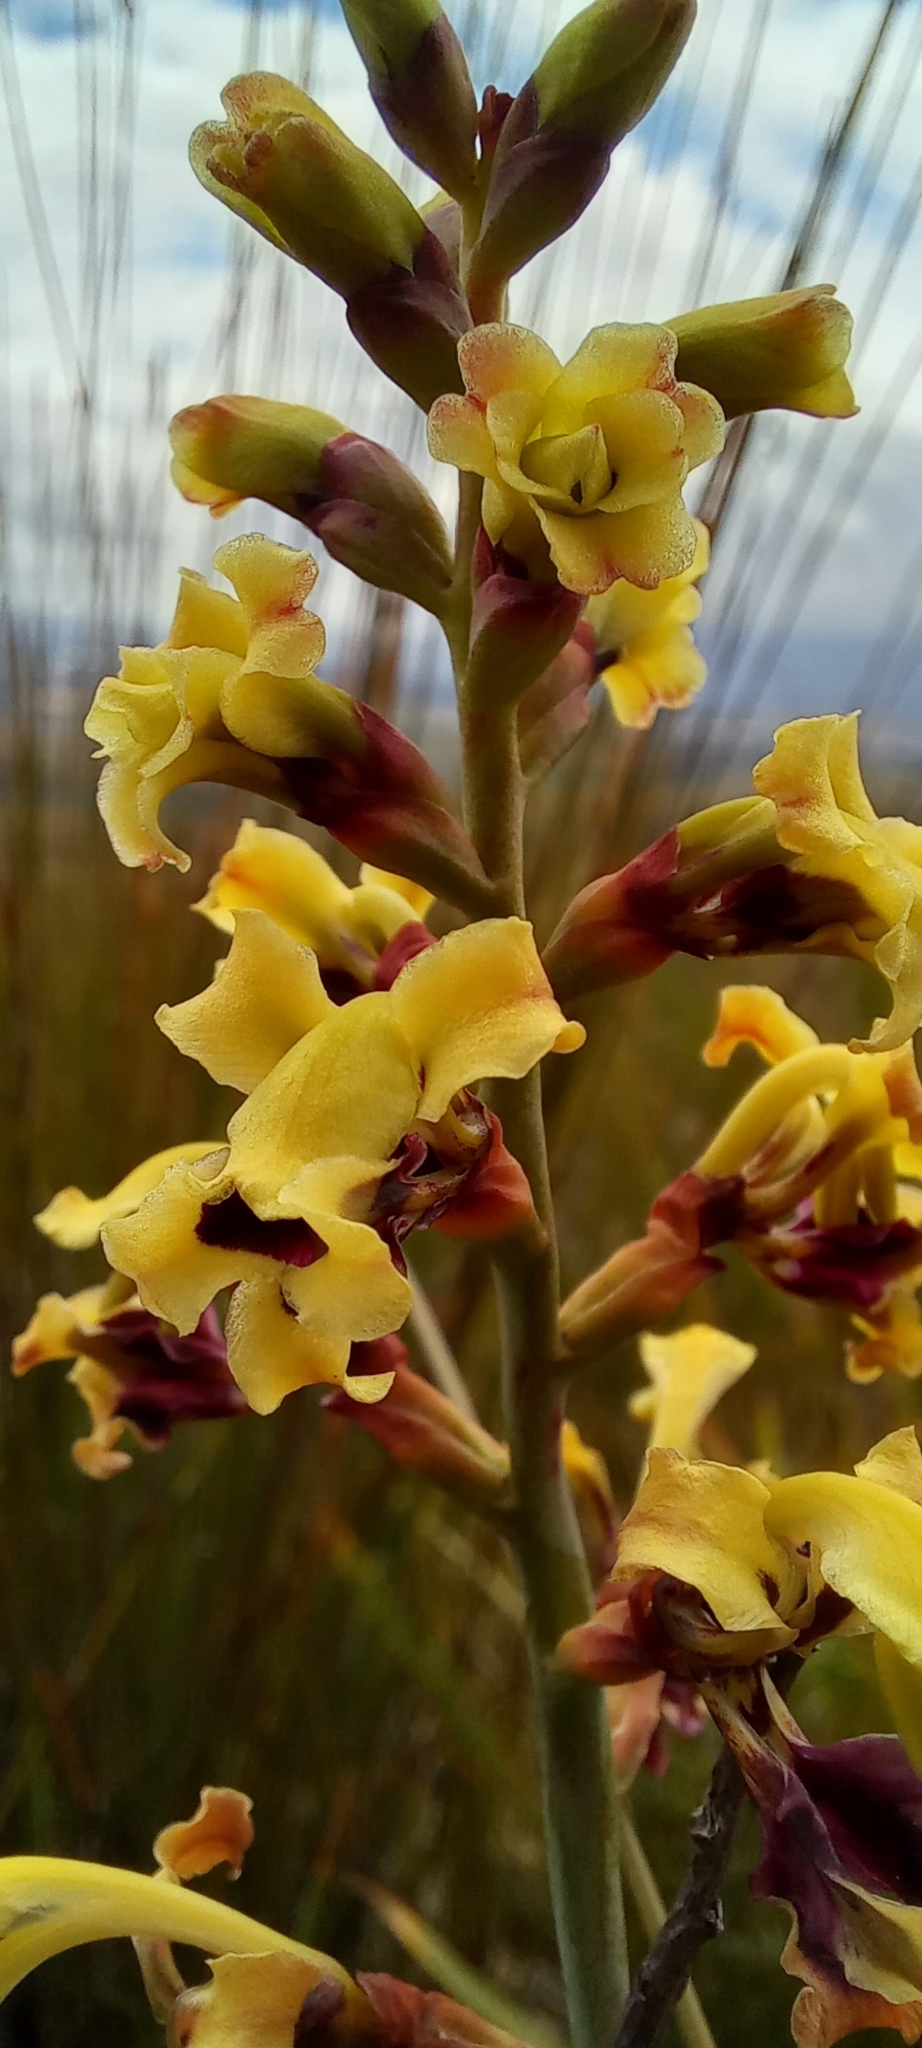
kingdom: Plantae
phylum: Tracheophyta
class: Liliopsida
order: Asparagales
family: Iridaceae
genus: Tritoniopsis
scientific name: Tritoniopsis parviflora
